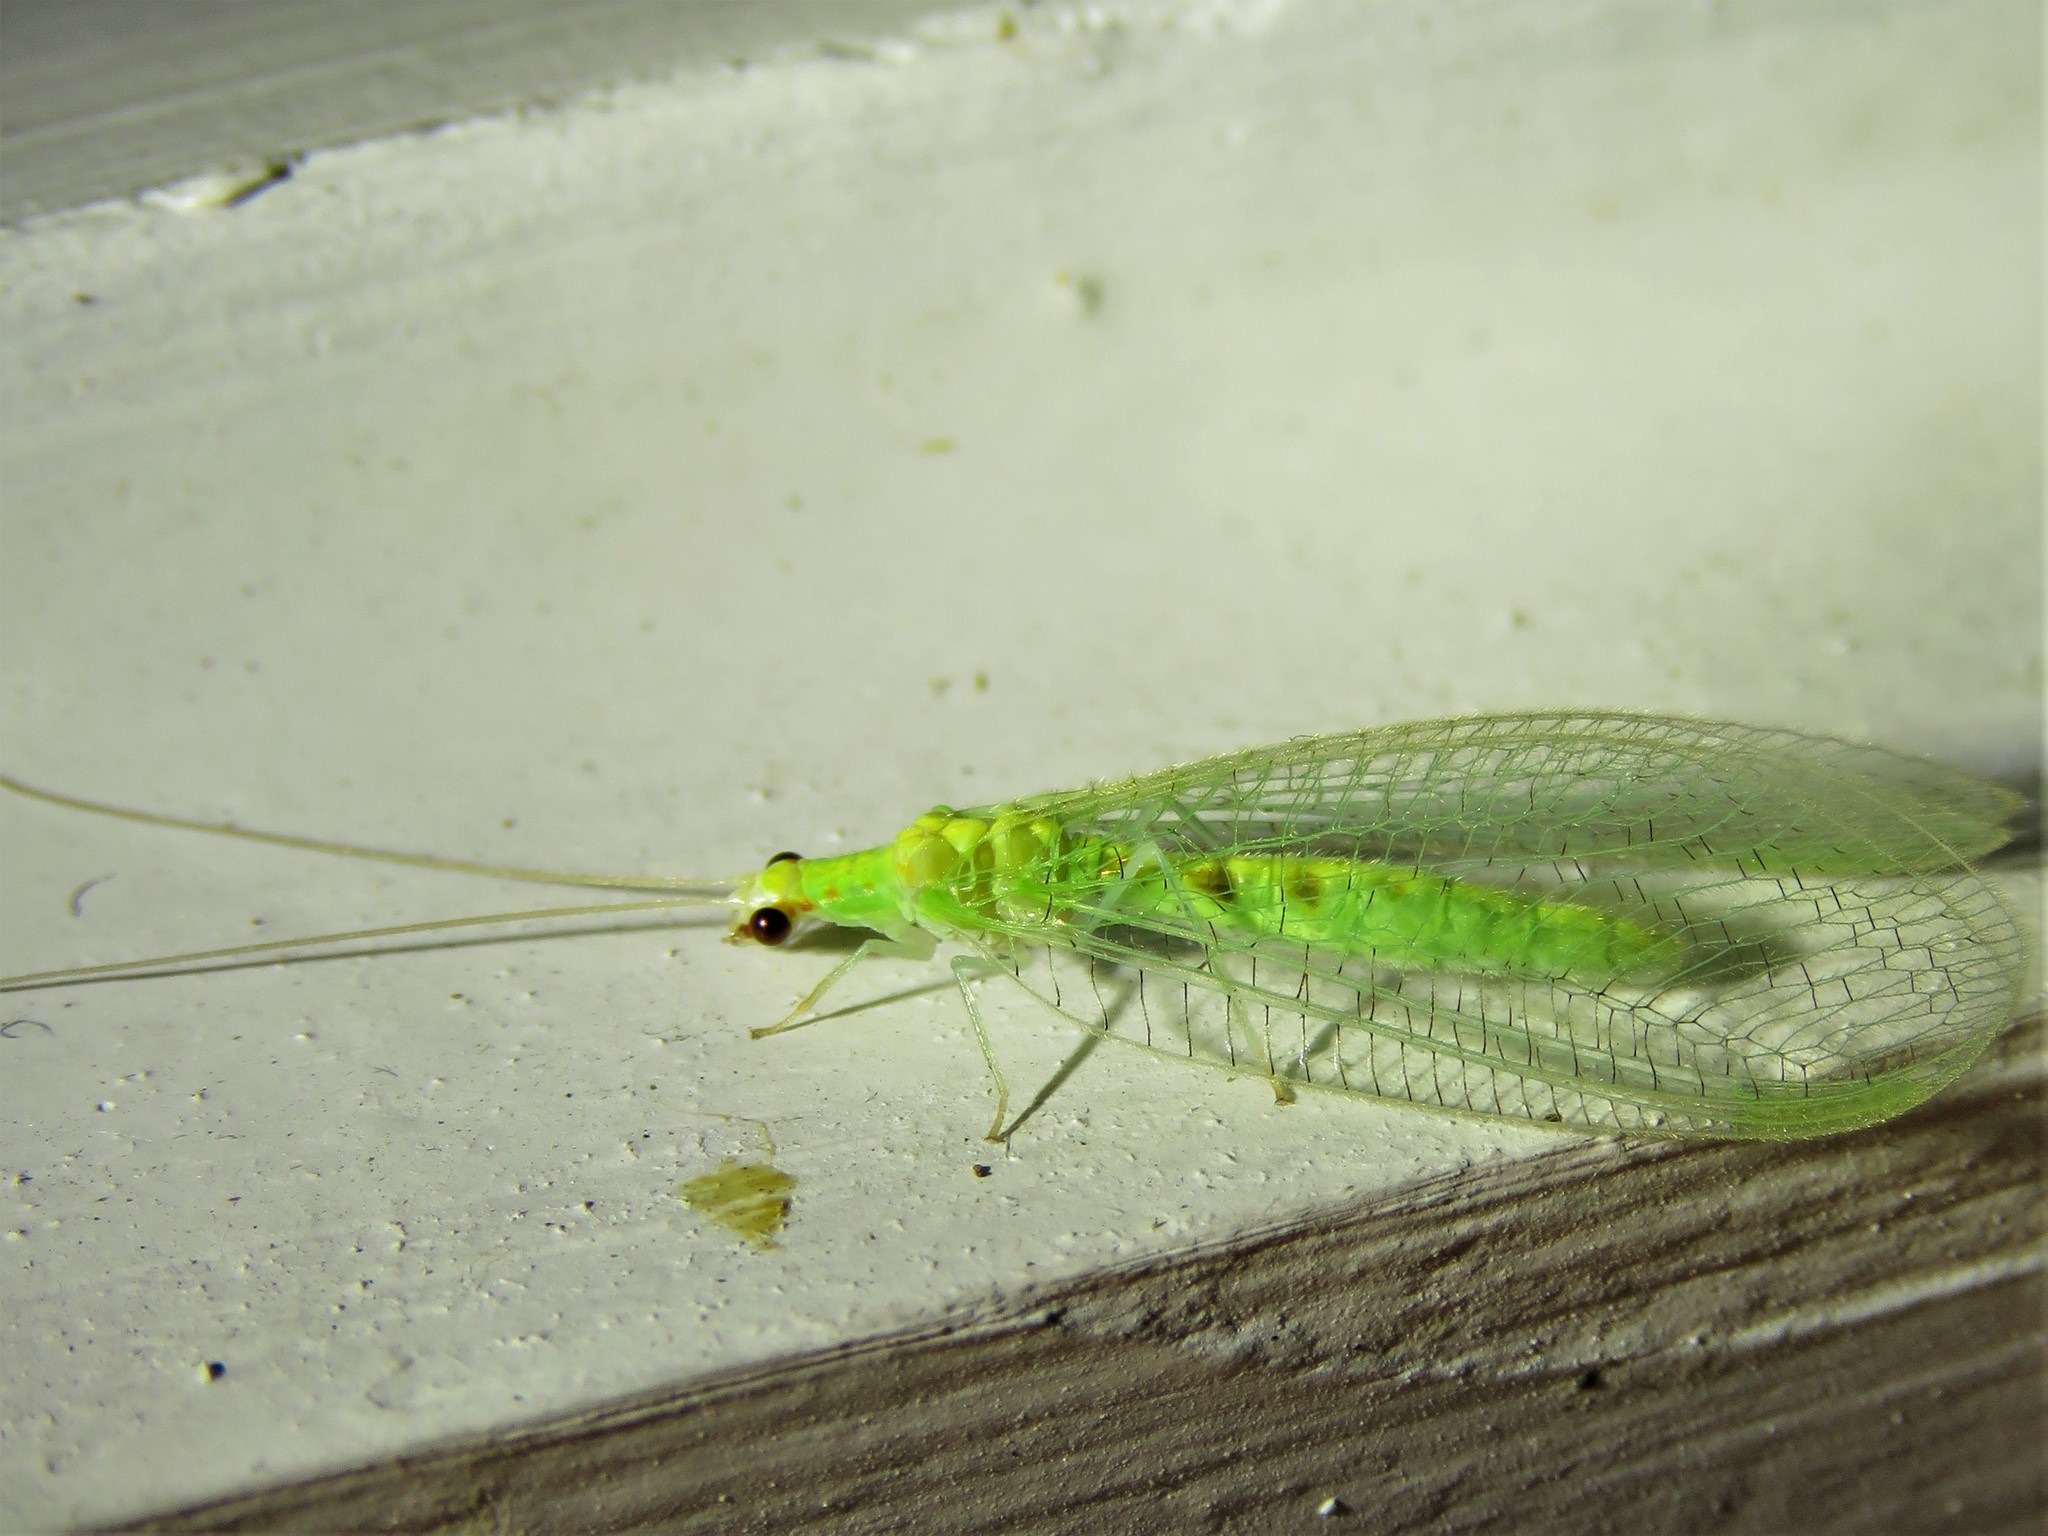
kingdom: Animalia
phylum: Arthropoda
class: Insecta
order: Neuroptera
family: Chrysopidae
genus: Chrysopa
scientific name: Chrysopa quadripunctata
